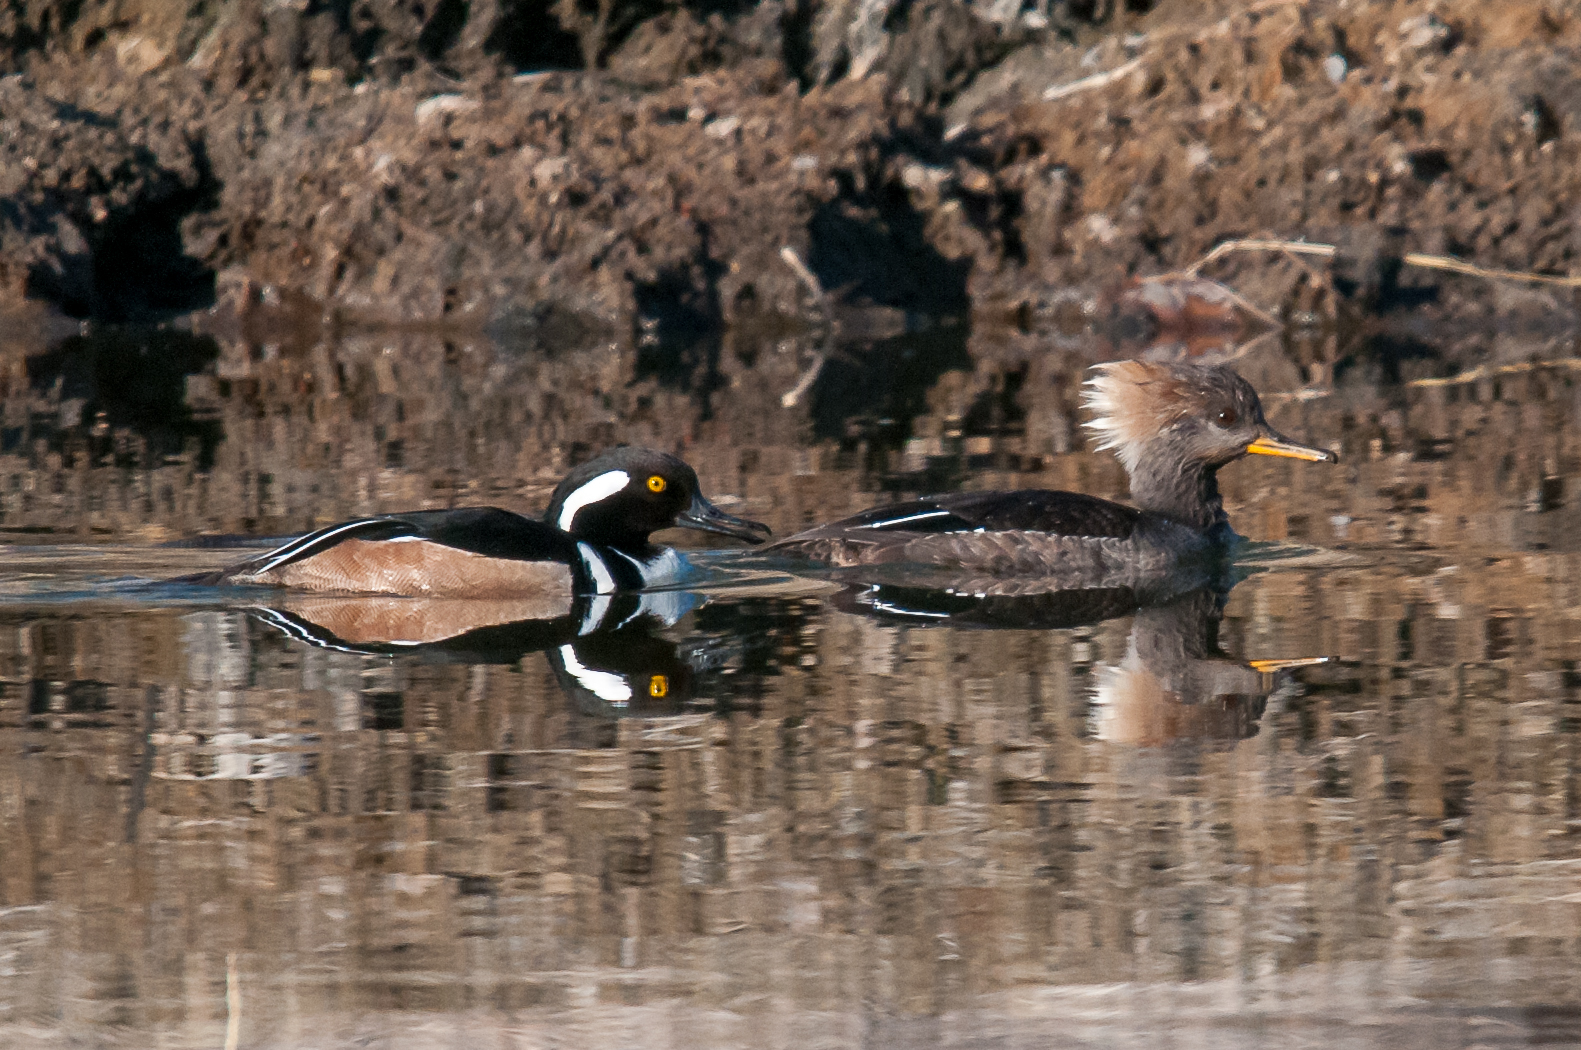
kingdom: Animalia
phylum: Chordata
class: Aves
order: Anseriformes
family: Anatidae
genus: Lophodytes
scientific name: Lophodytes cucullatus
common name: Hooded merganser
